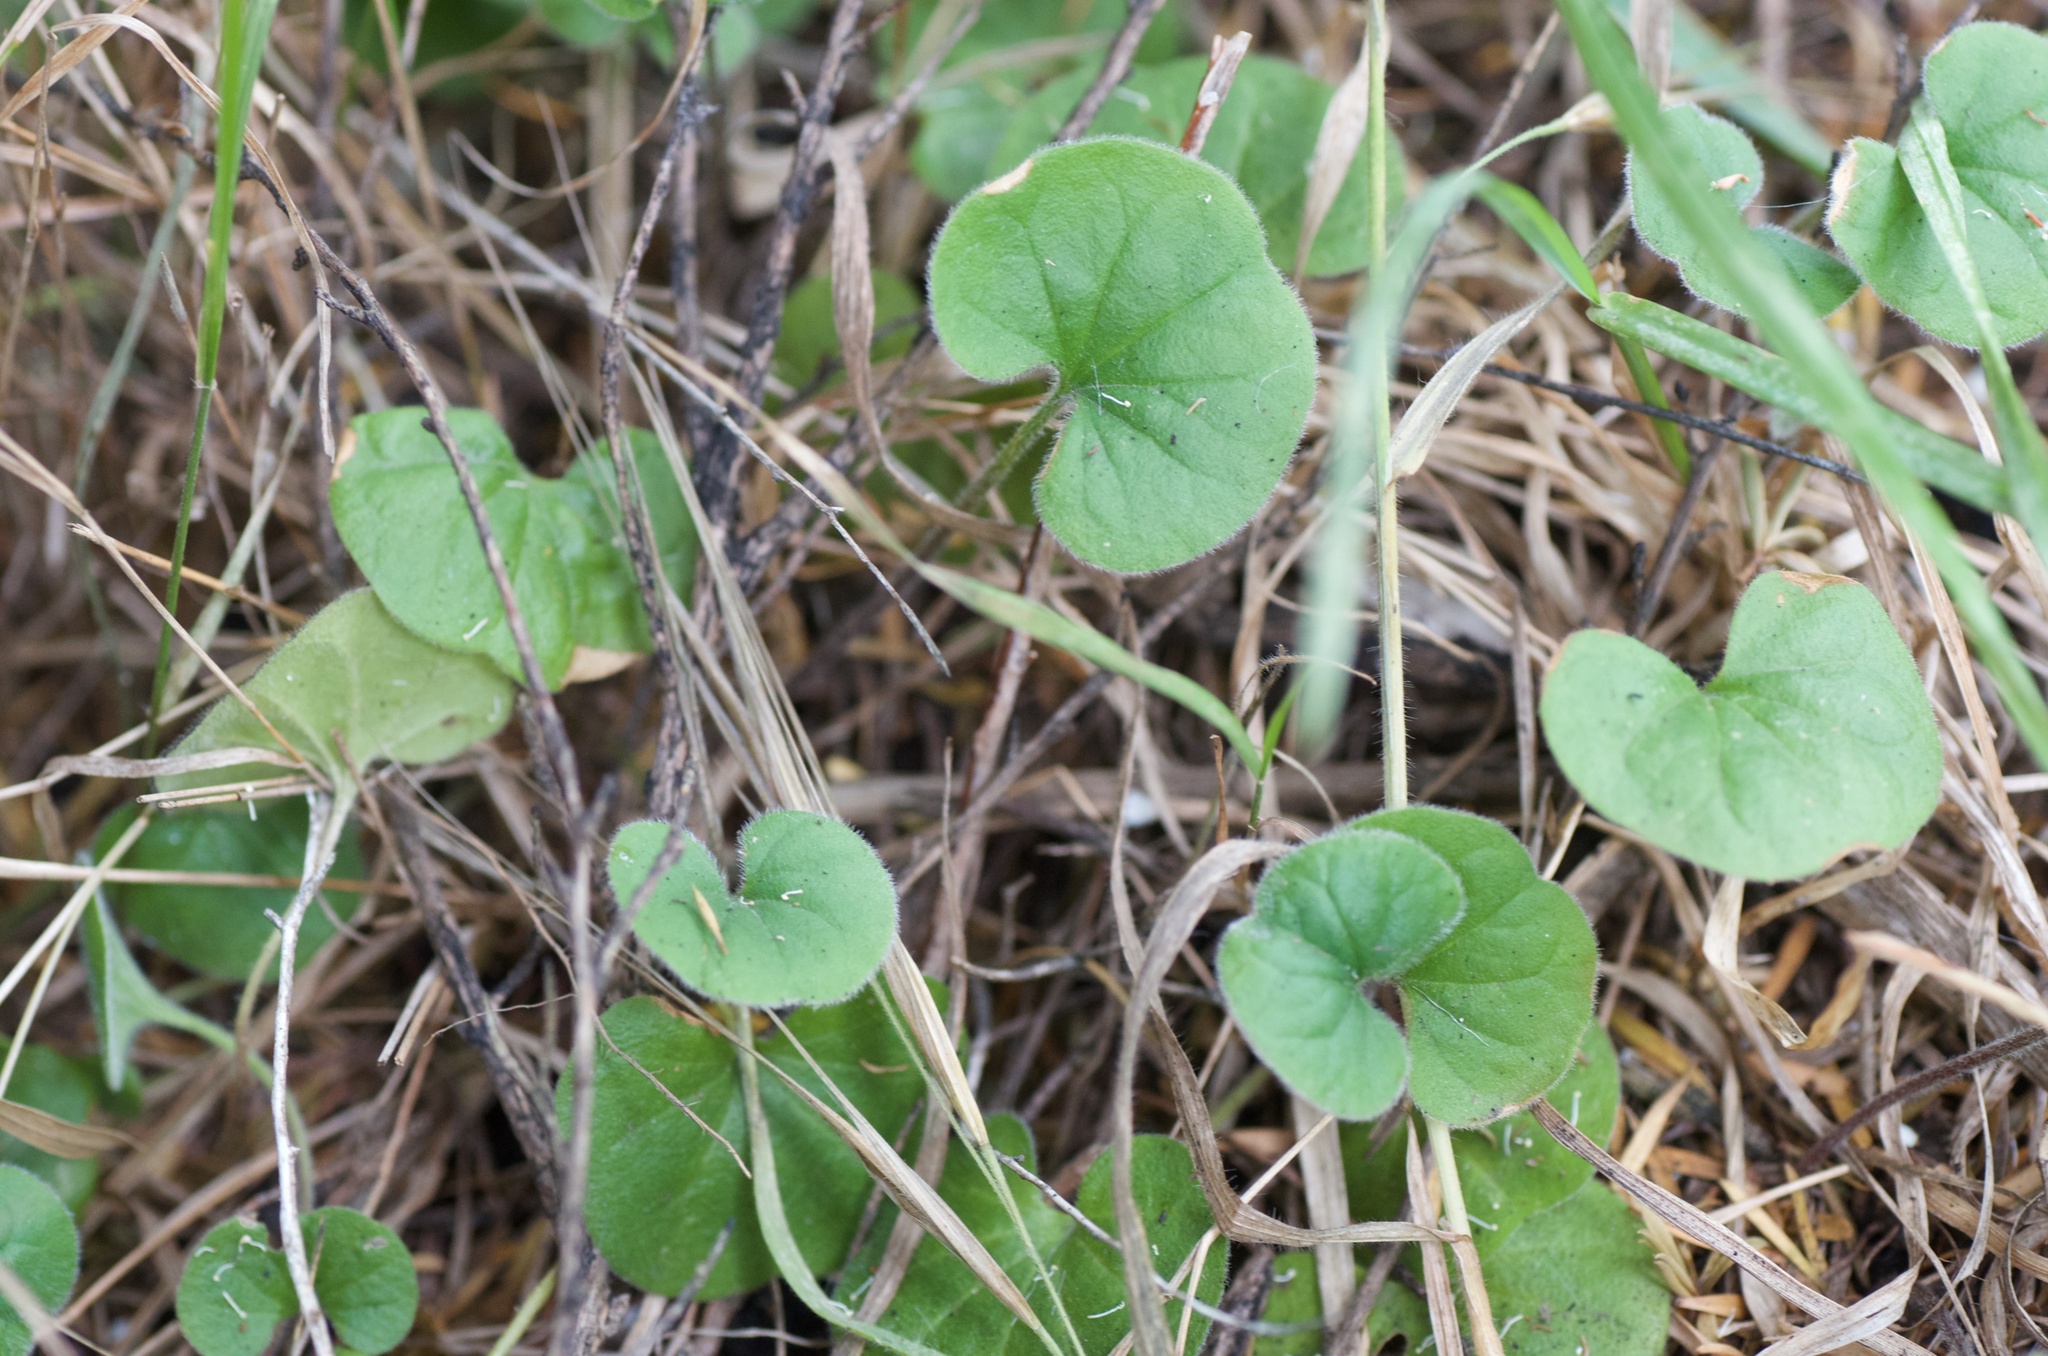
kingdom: Plantae
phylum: Tracheophyta
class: Magnoliopsida
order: Solanales
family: Convolvulaceae
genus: Dichondra
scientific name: Dichondra repens
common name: Kidneyweed
